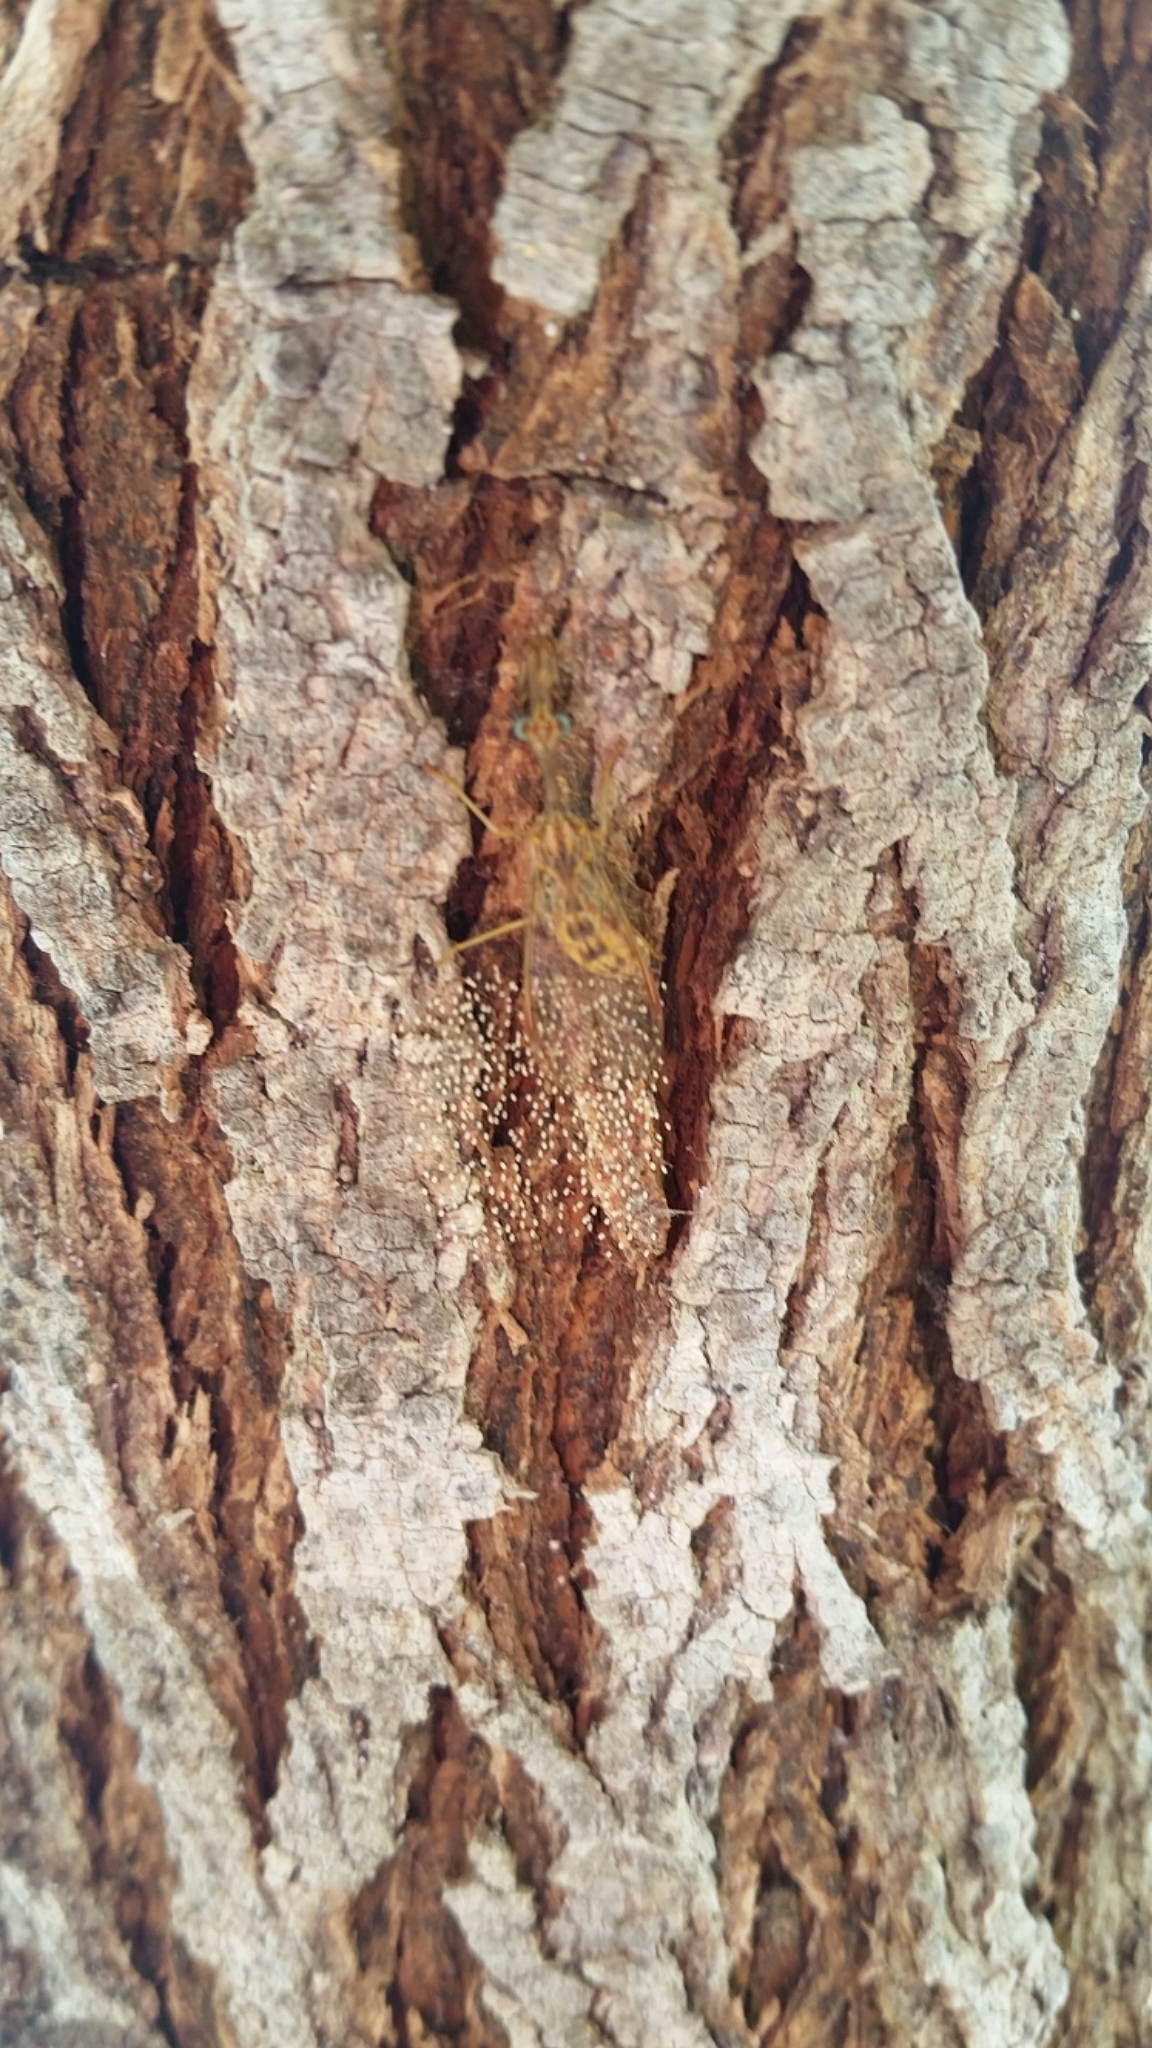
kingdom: Animalia
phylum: Arthropoda
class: Insecta
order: Neuroptera
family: Mantispidae
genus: Dicromantispa
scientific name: Dicromantispa sayi
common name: Say's mantidfly
